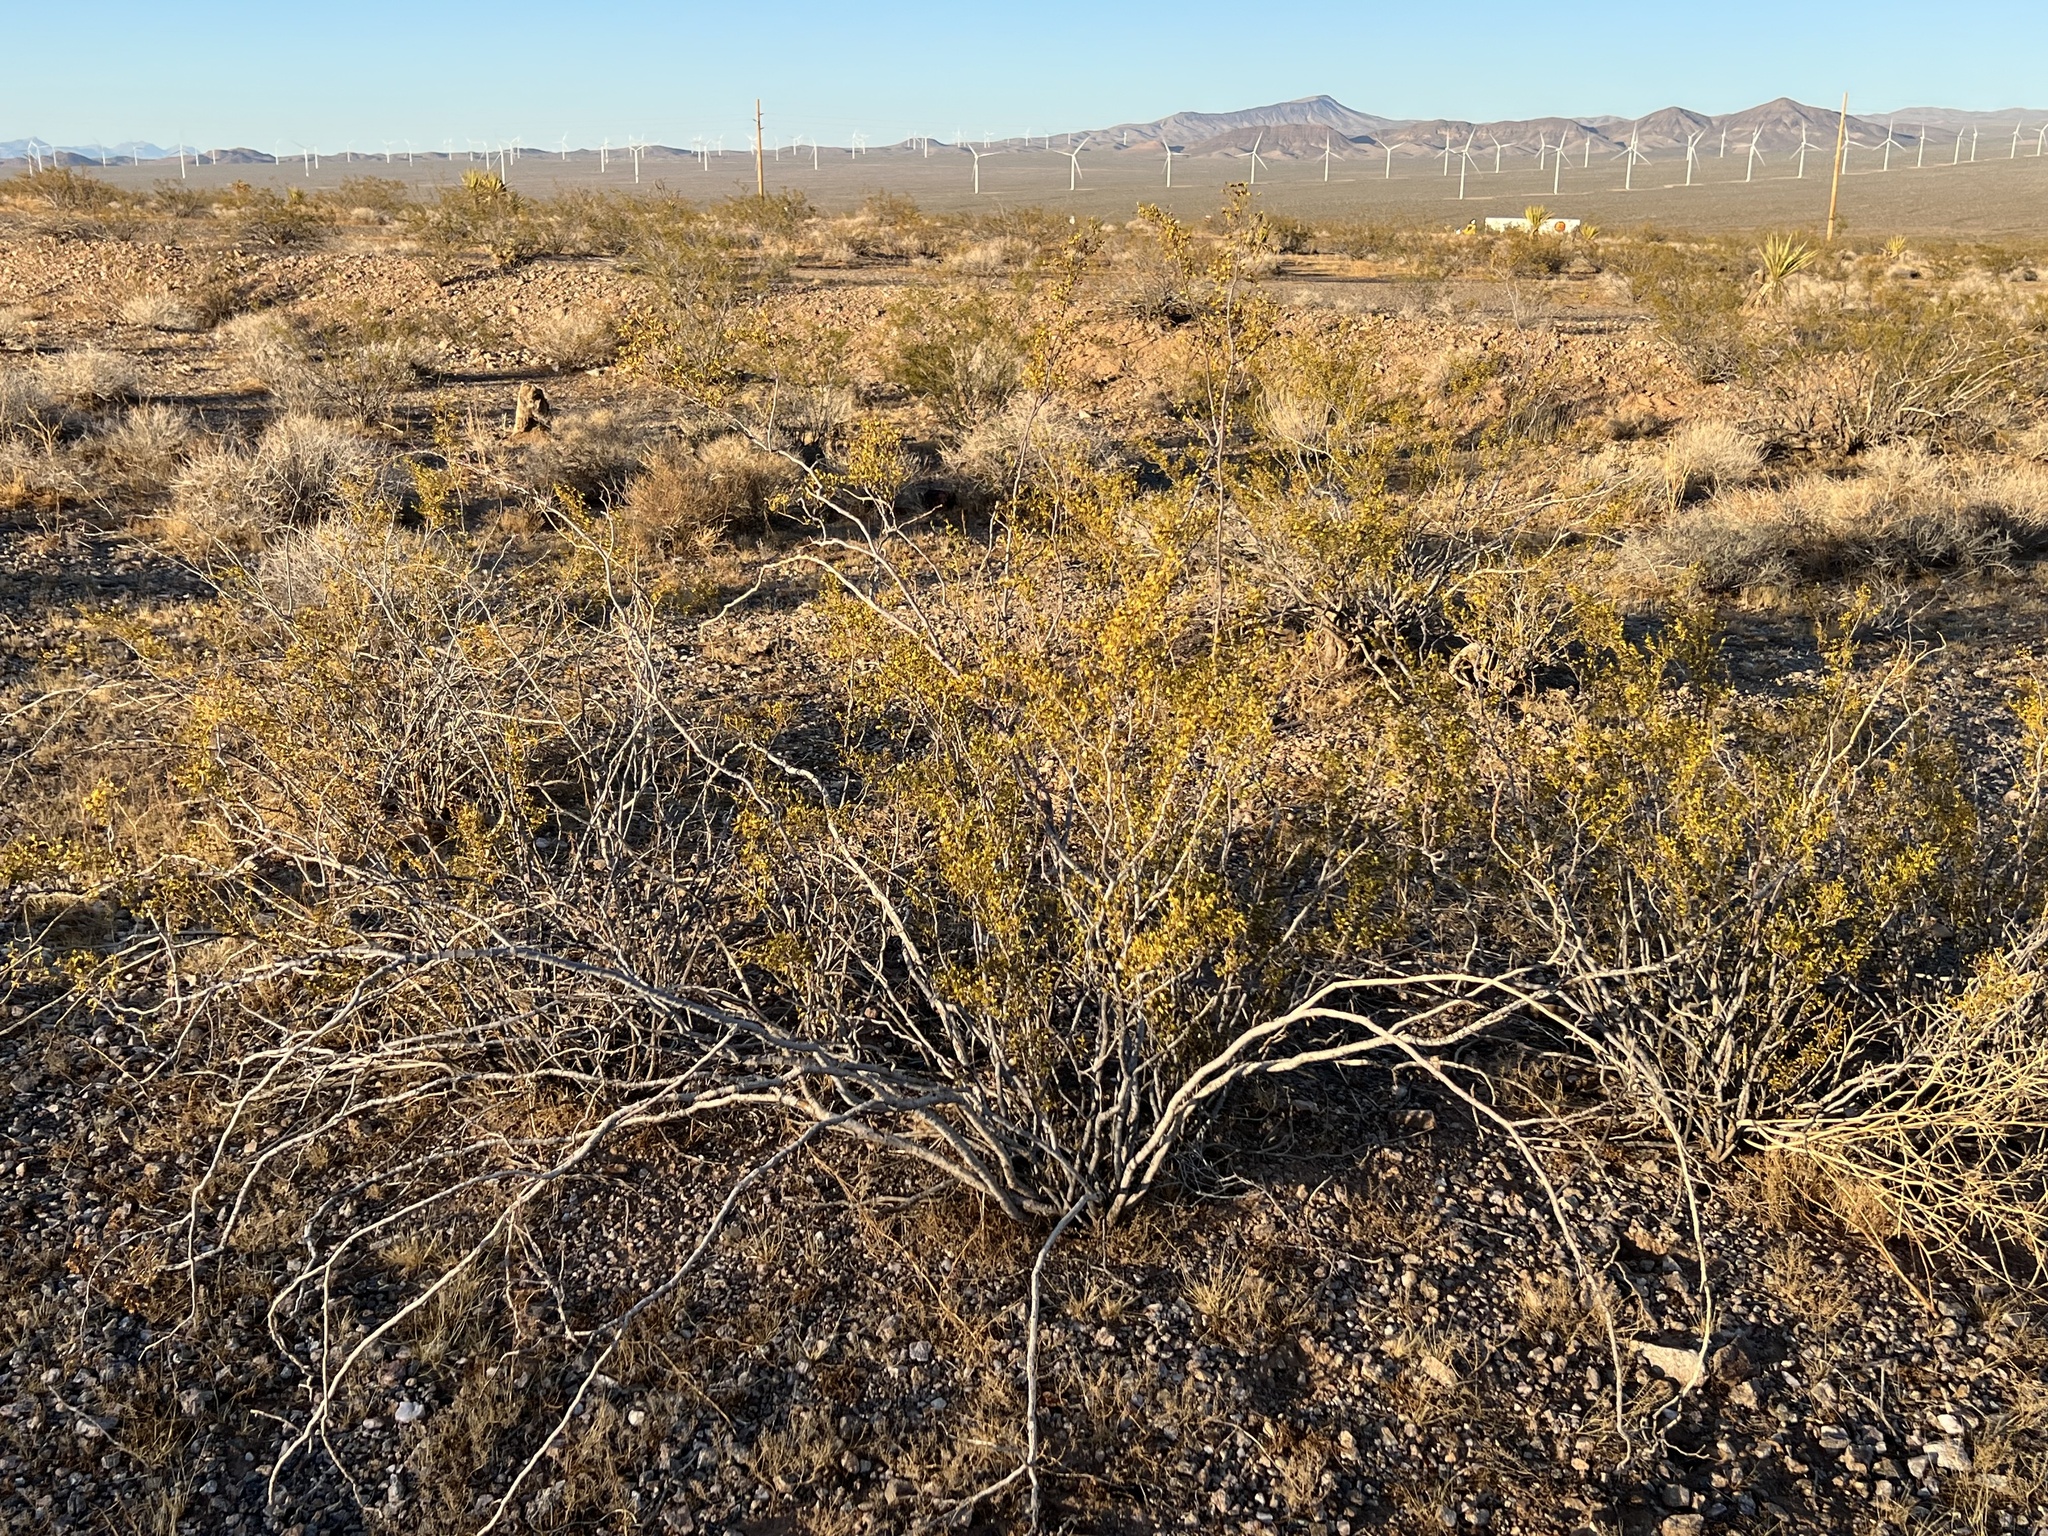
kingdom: Plantae
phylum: Tracheophyta
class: Magnoliopsida
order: Zygophyllales
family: Zygophyllaceae
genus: Larrea
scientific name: Larrea tridentata
